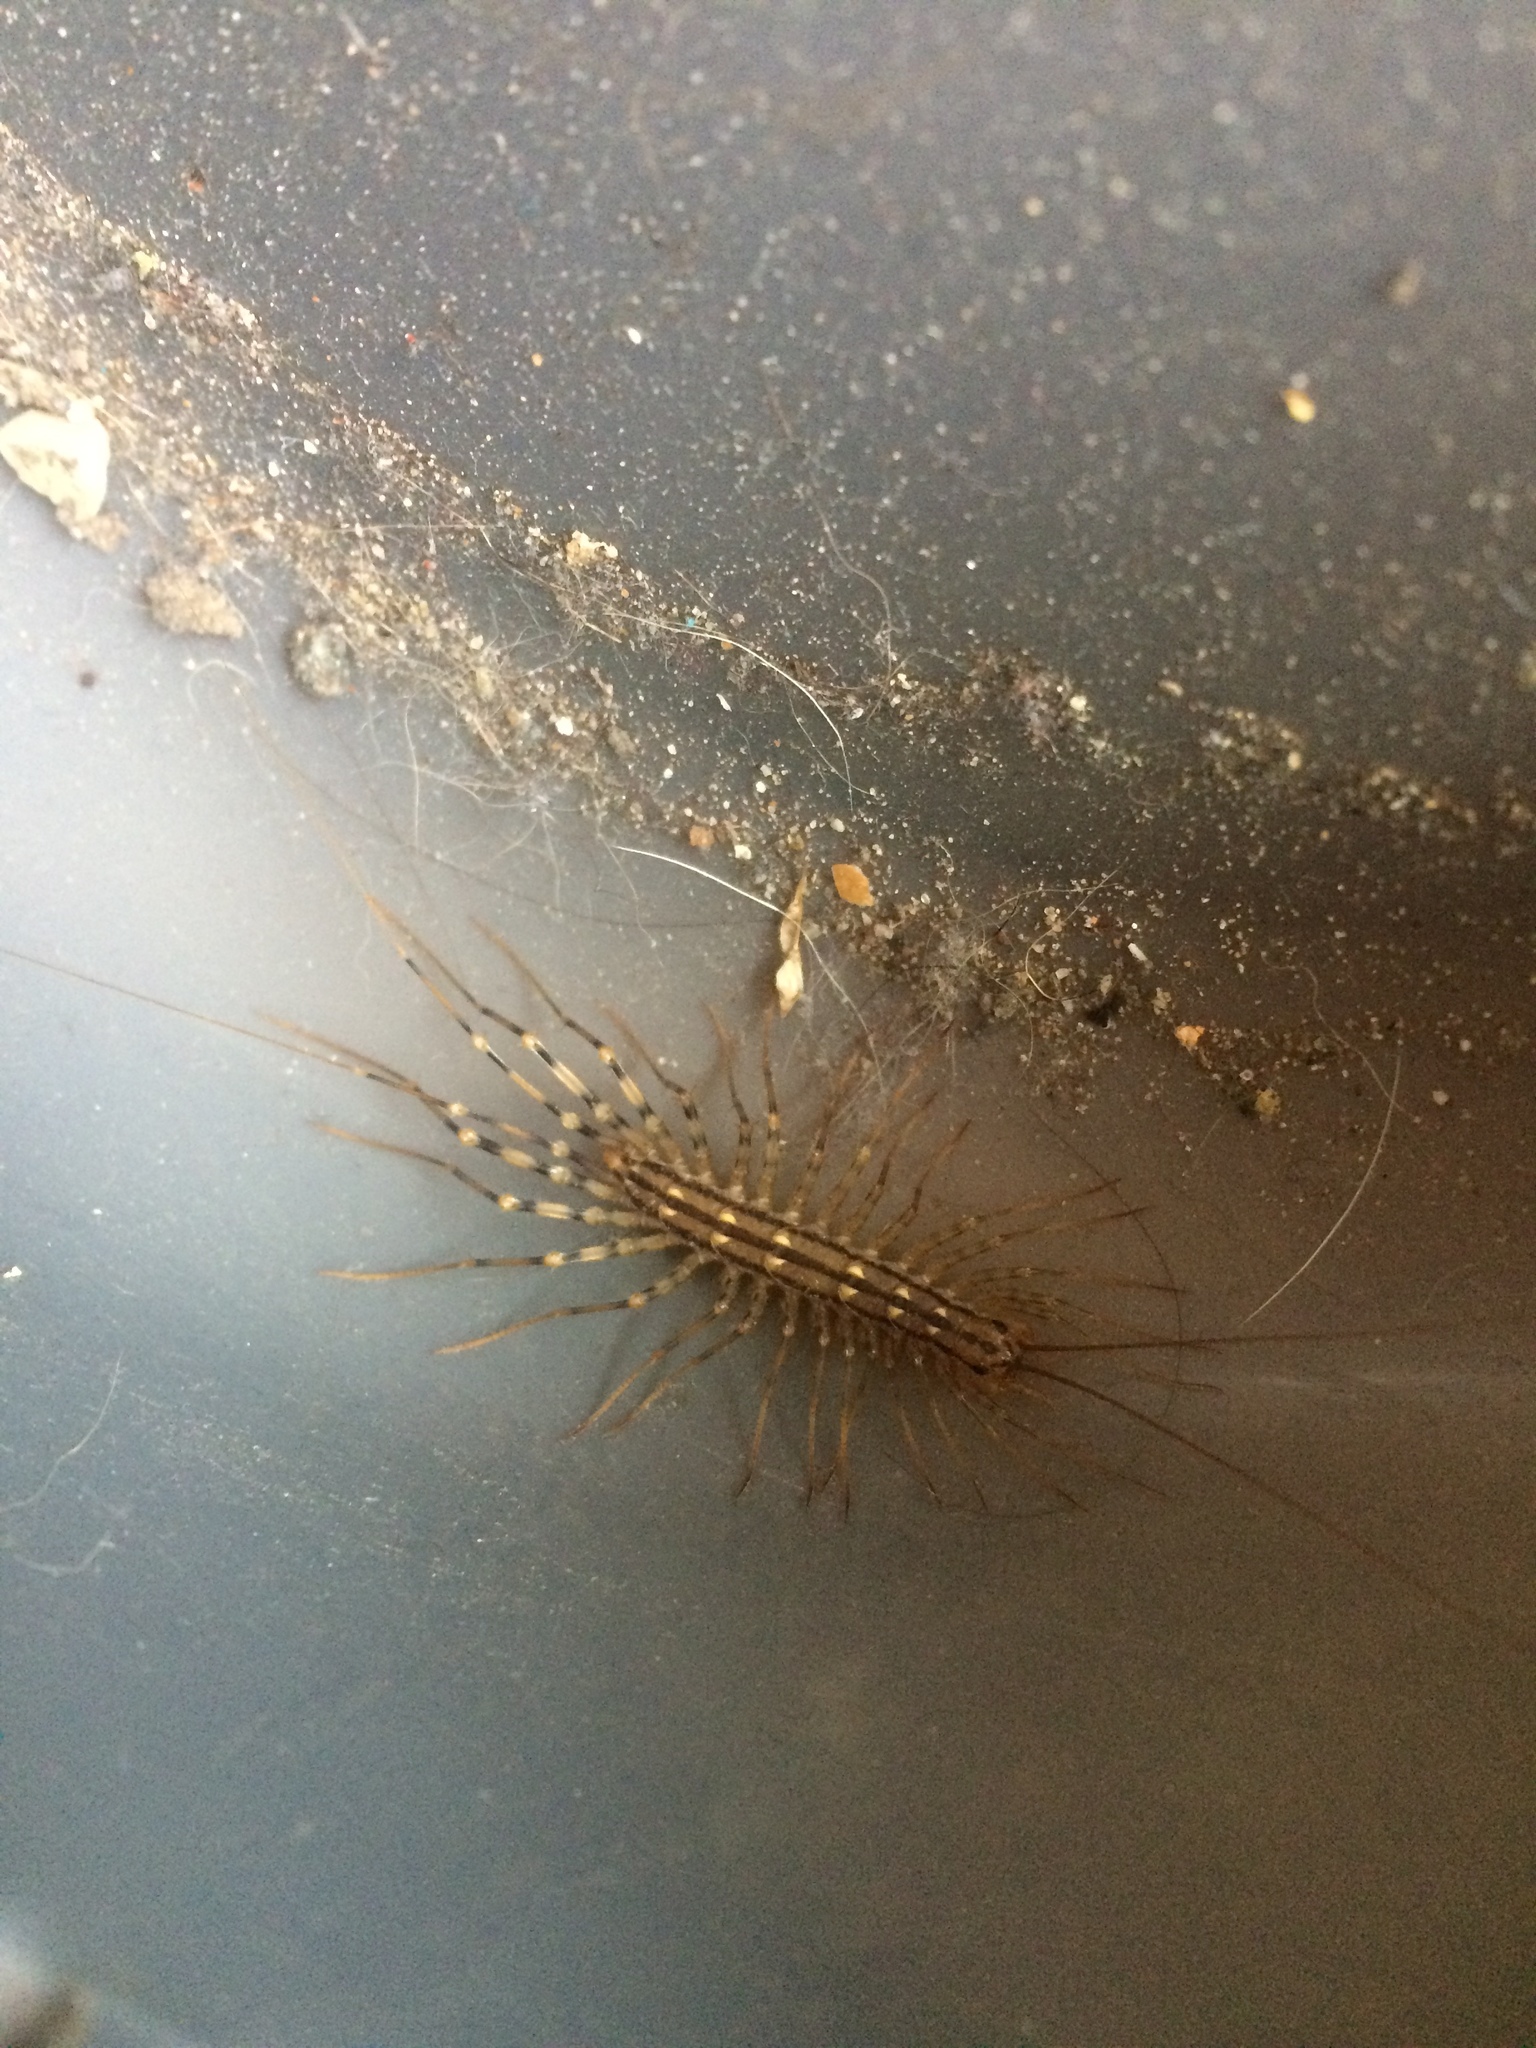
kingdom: Animalia
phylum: Arthropoda
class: Chilopoda
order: Scutigeromorpha
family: Scutigeridae
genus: Scutigera
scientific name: Scutigera coleoptrata
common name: House centipede
